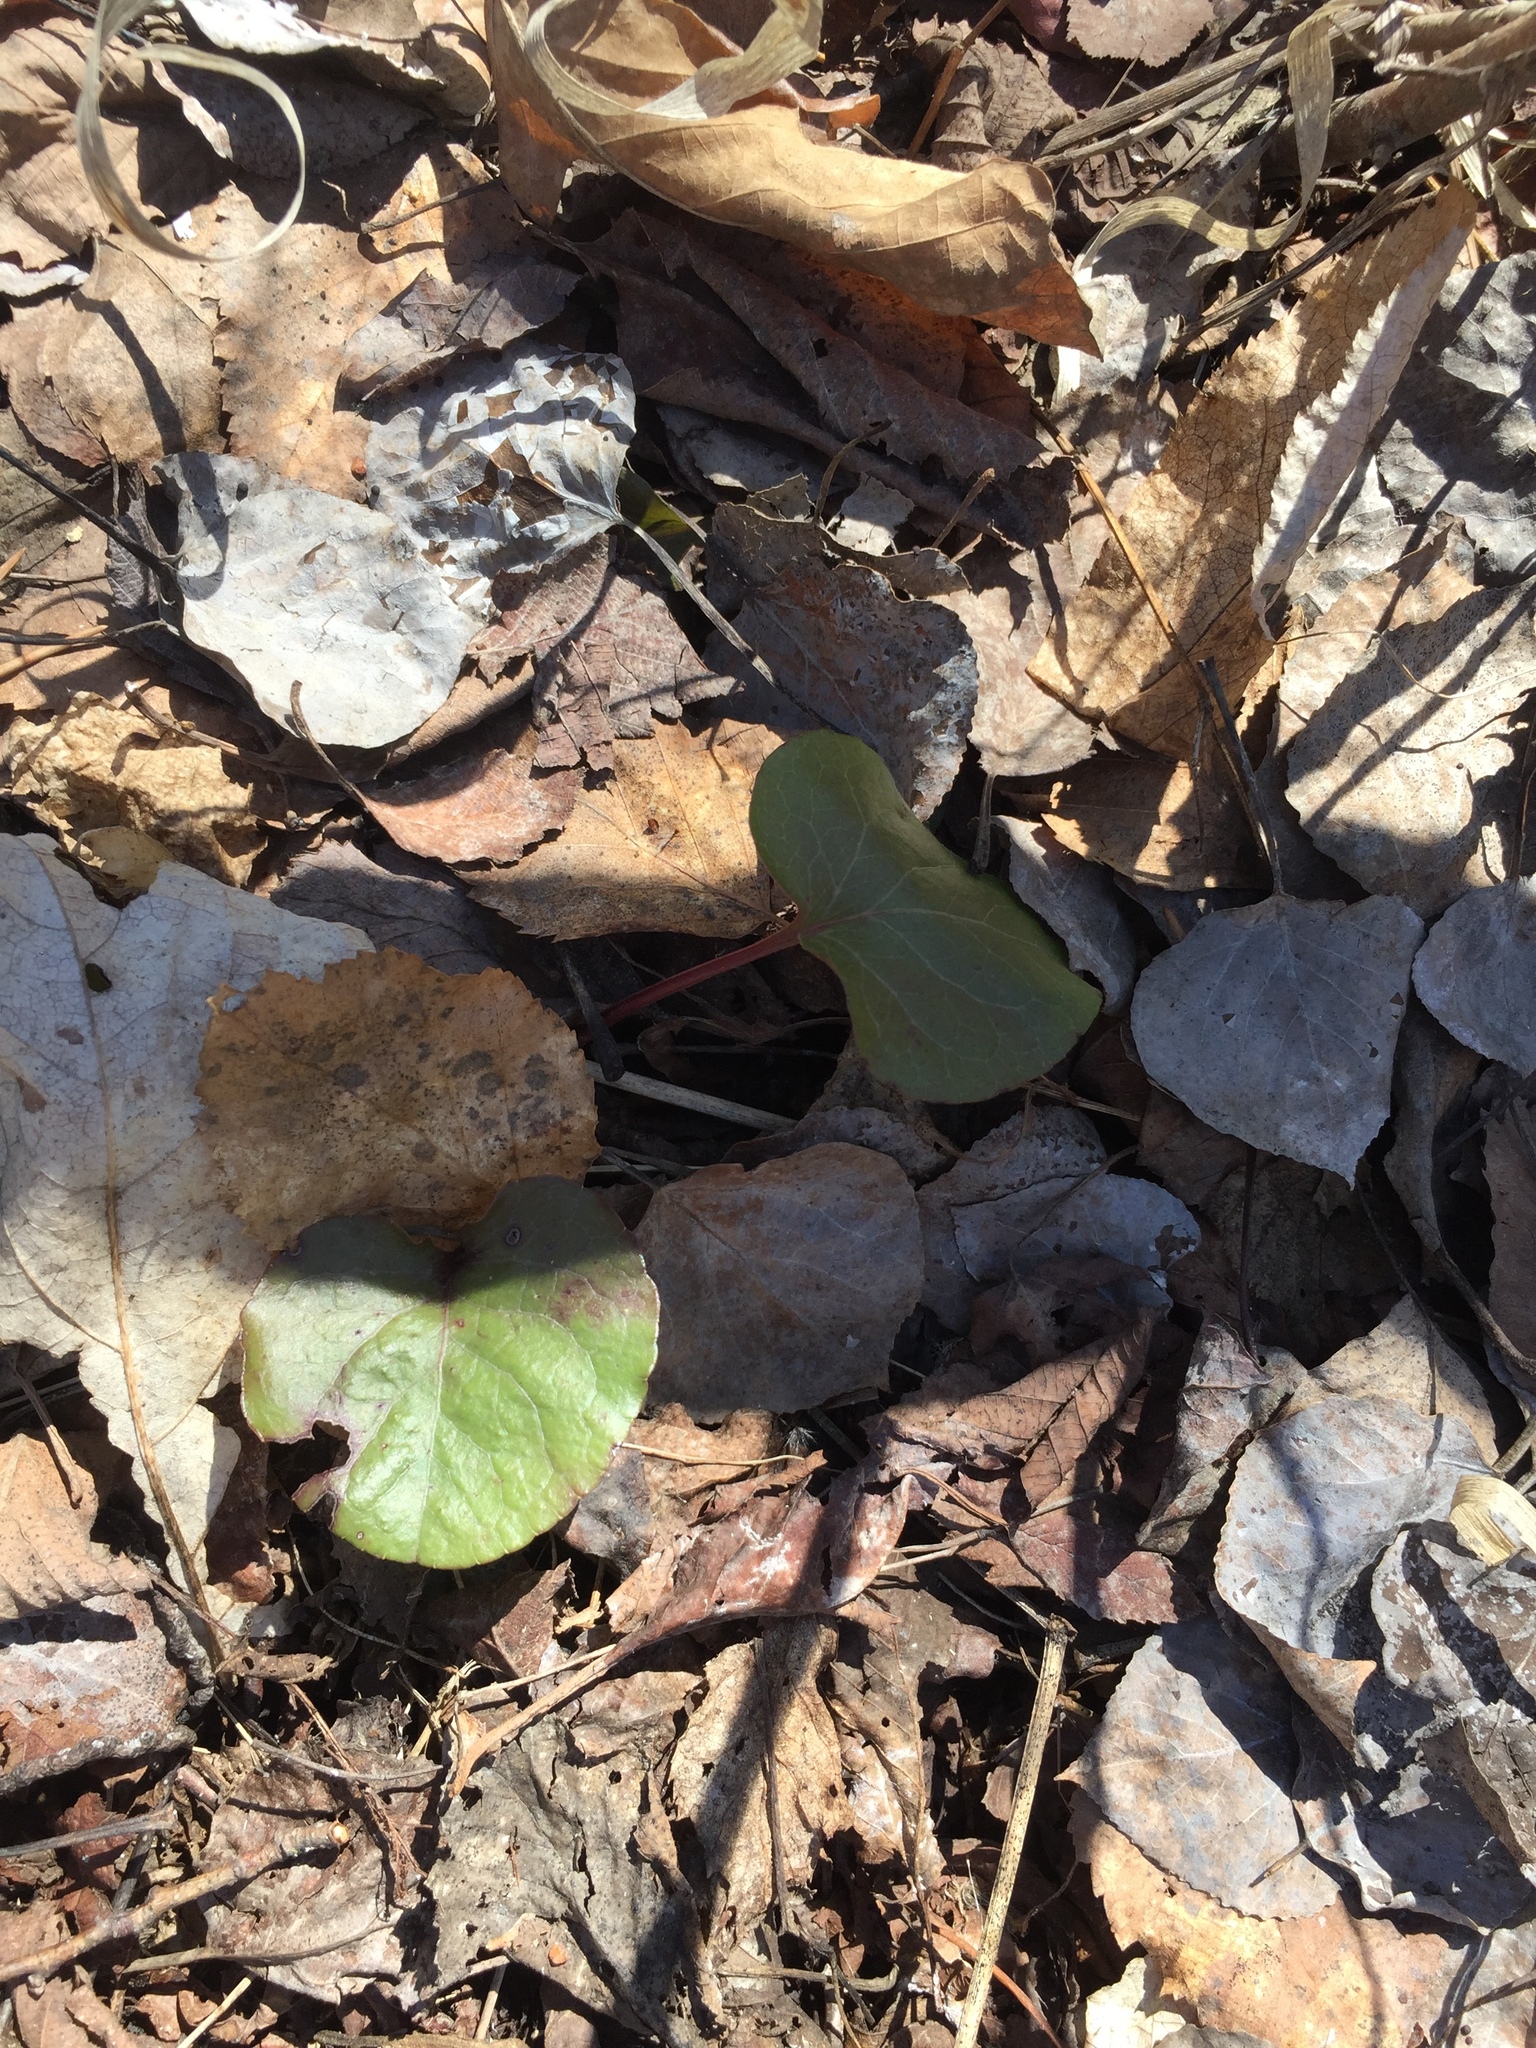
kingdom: Plantae
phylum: Tracheophyta
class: Magnoliopsida
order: Ericales
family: Ericaceae
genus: Pyrola
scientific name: Pyrola asarifolia
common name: Bog wintergreen
